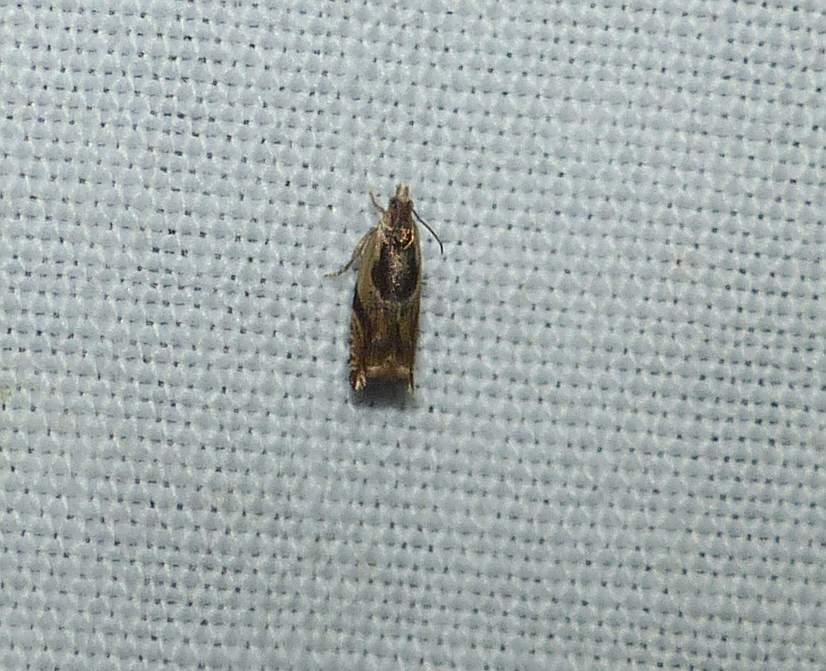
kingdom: Animalia
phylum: Arthropoda
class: Insecta
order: Lepidoptera
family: Tortricidae
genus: Ancylis
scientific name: Ancylis metamelana
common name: Black-marked ancylis moth
